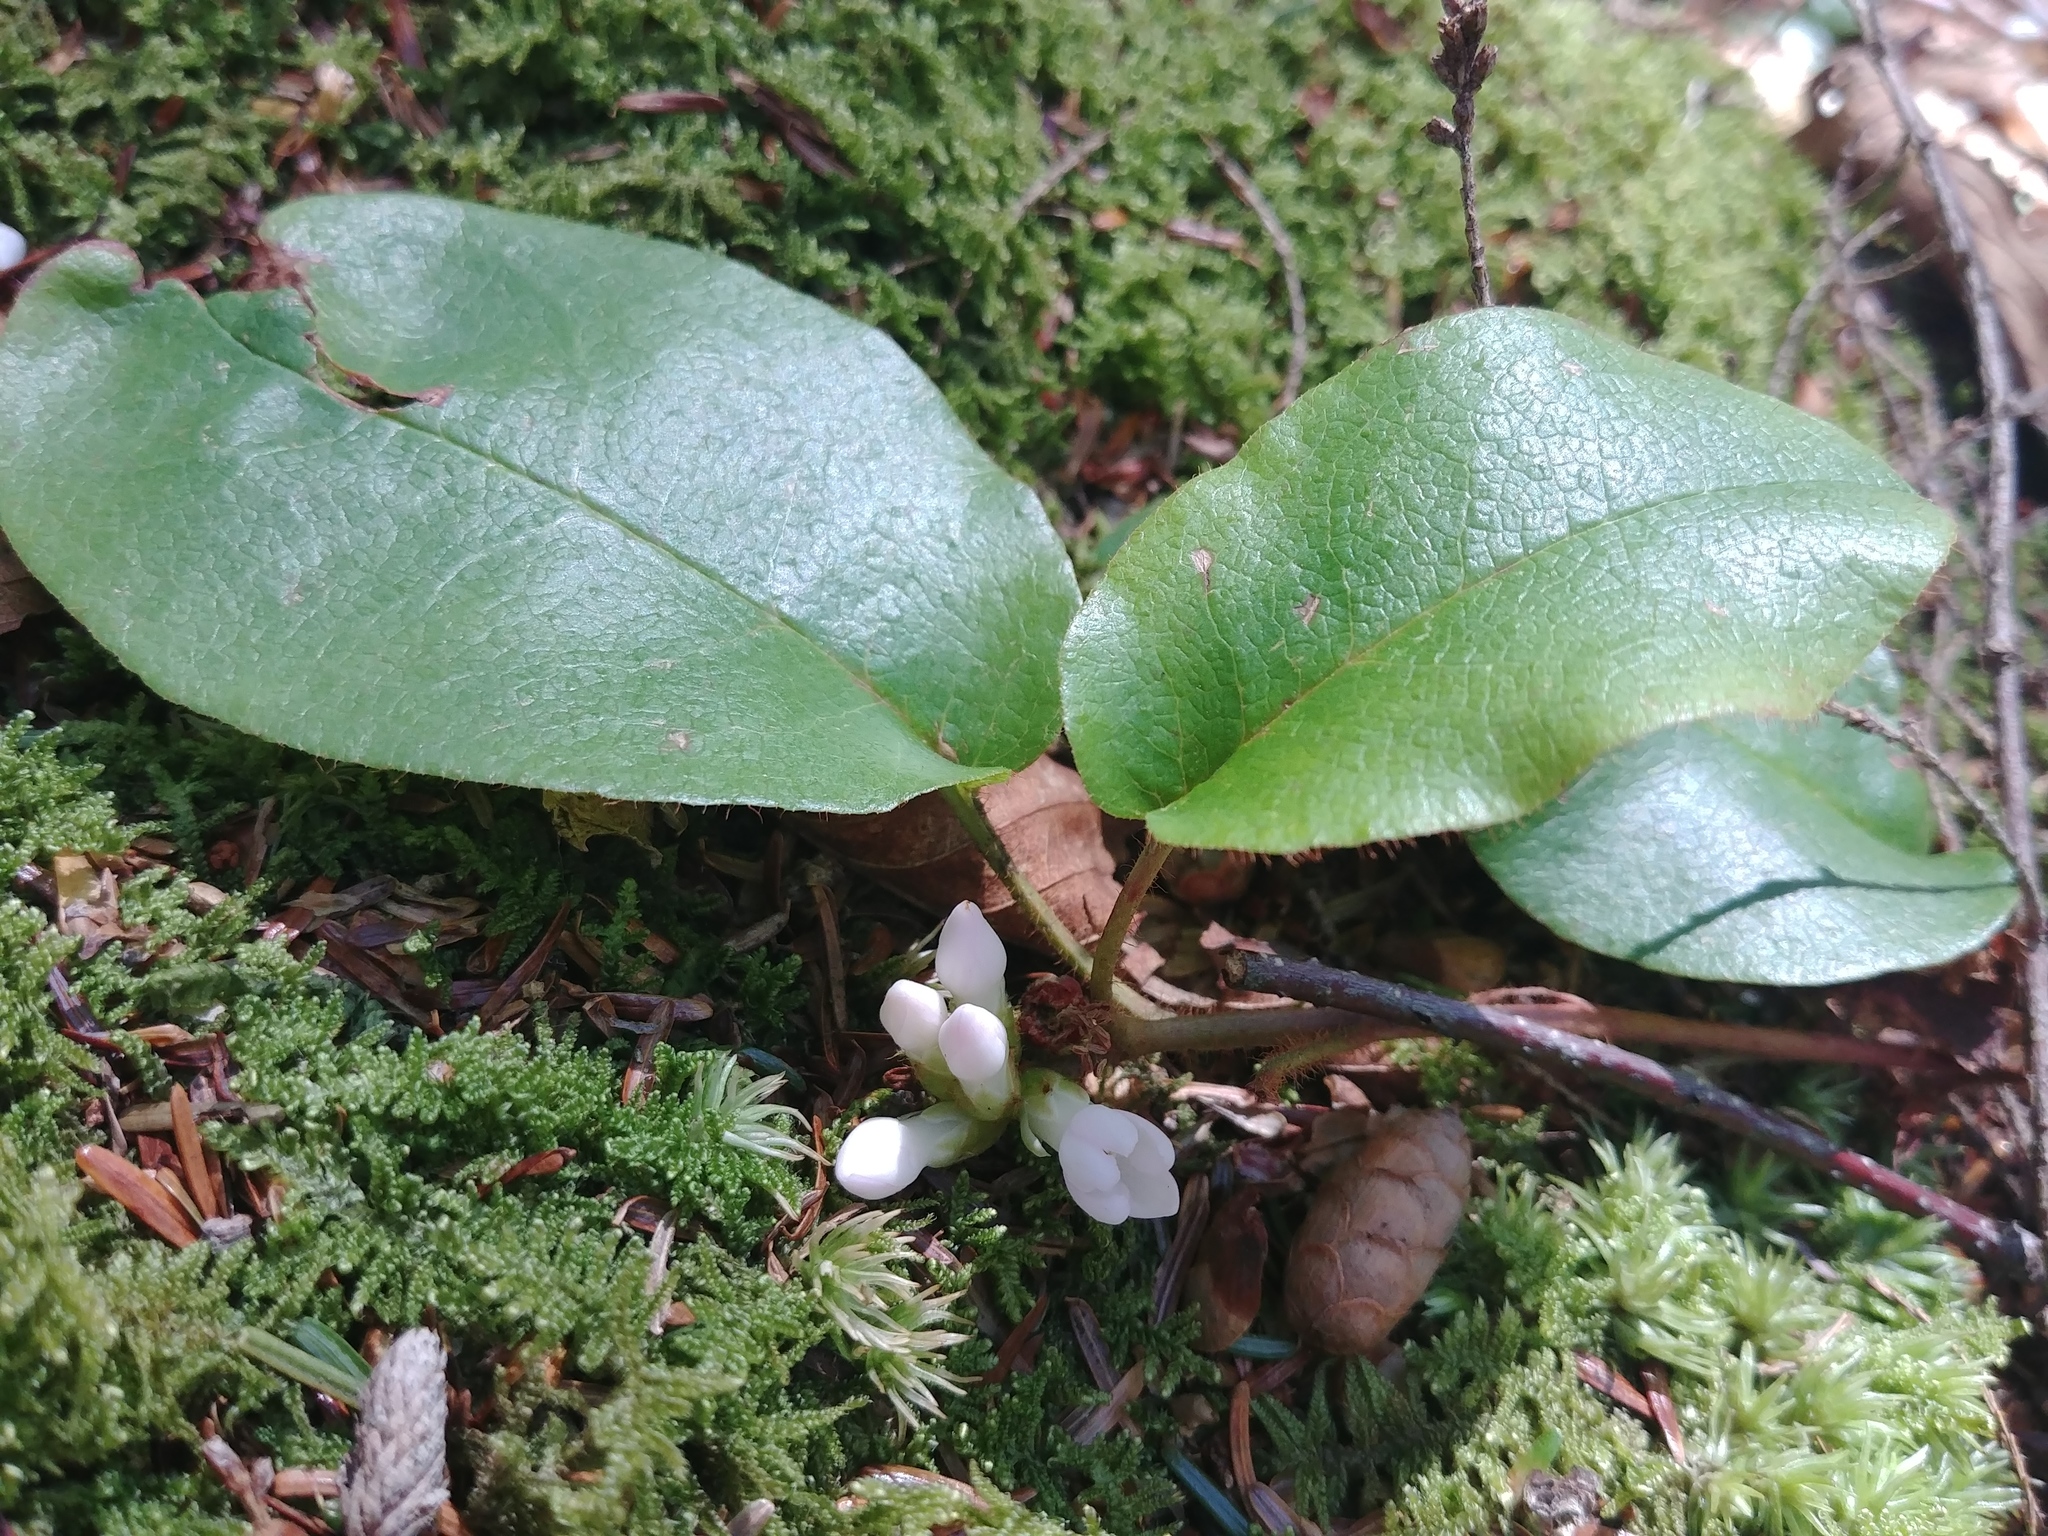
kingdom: Plantae
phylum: Tracheophyta
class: Magnoliopsida
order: Ericales
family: Ericaceae
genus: Epigaea
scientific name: Epigaea repens
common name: Gravelroot
